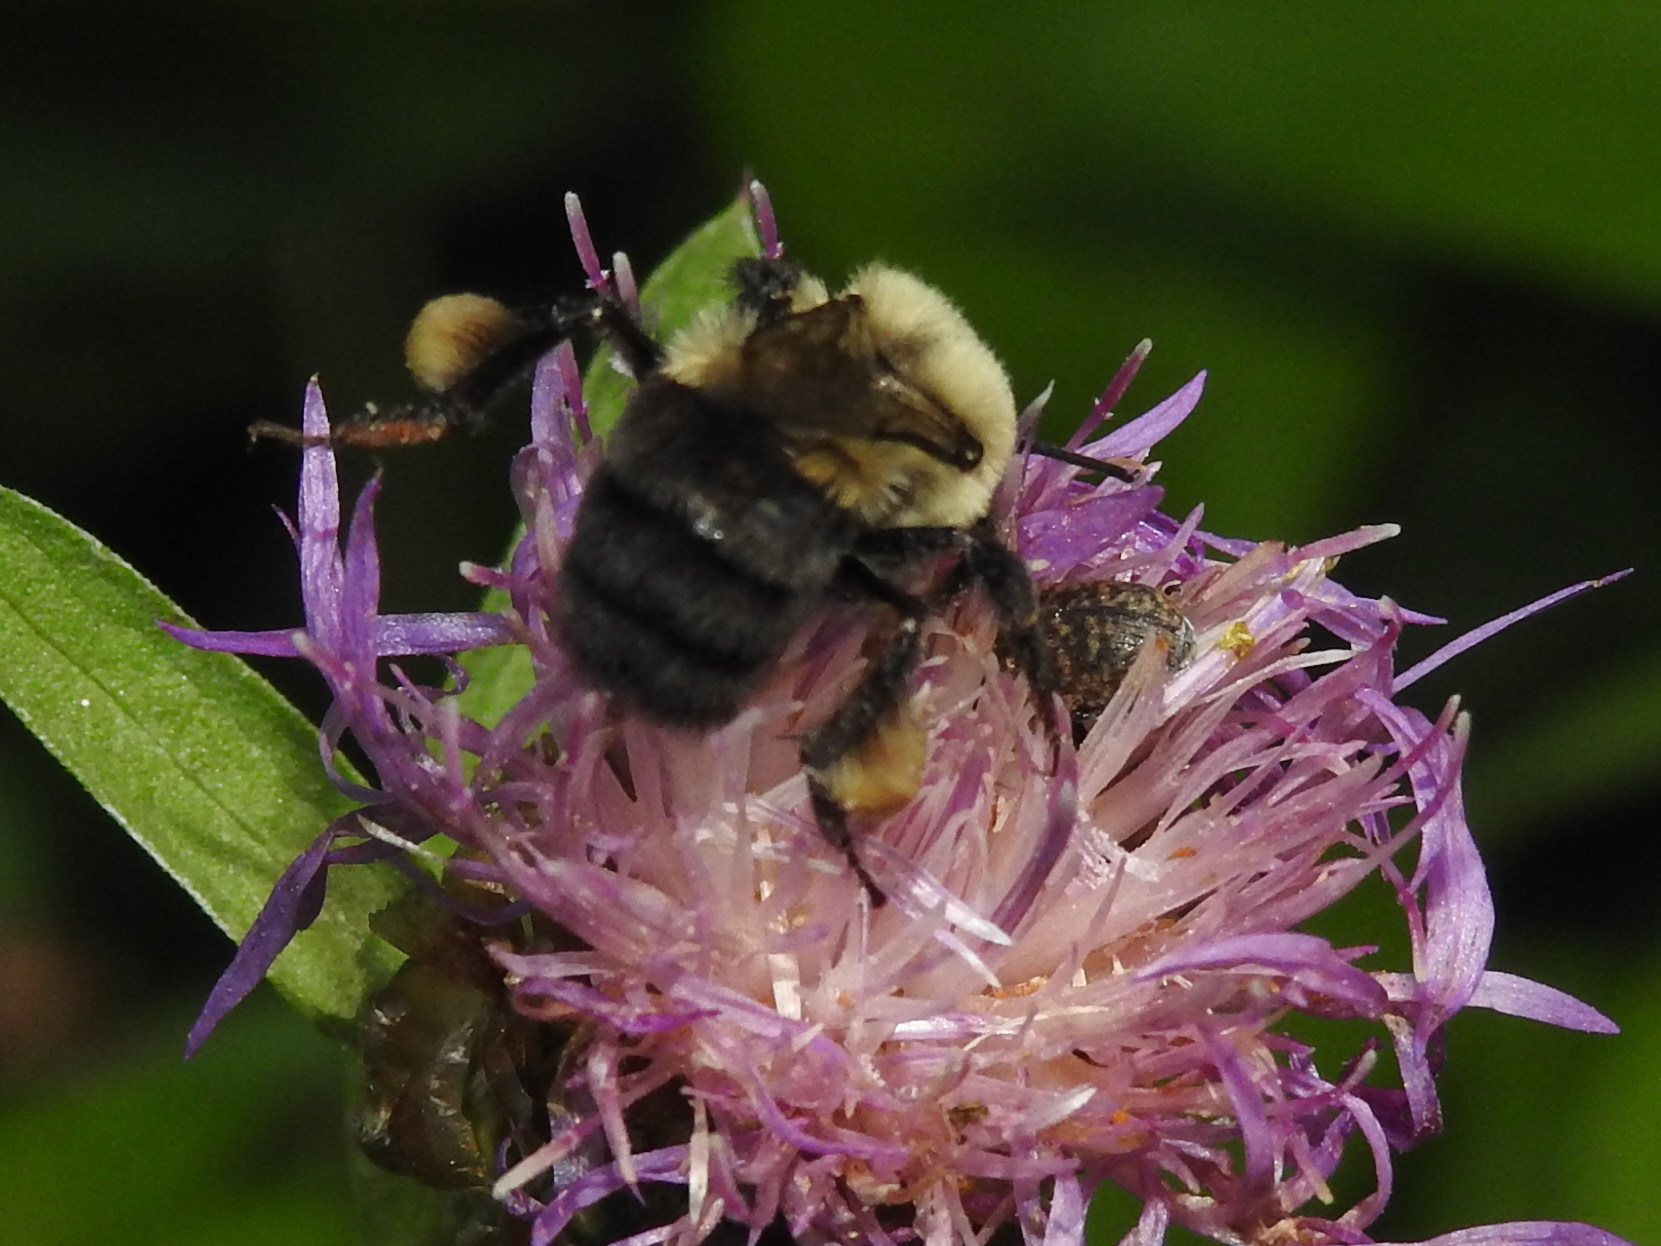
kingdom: Animalia
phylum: Arthropoda
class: Insecta
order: Hymenoptera
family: Apidae
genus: Bombus
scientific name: Bombus impatiens
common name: Common eastern bumble bee
